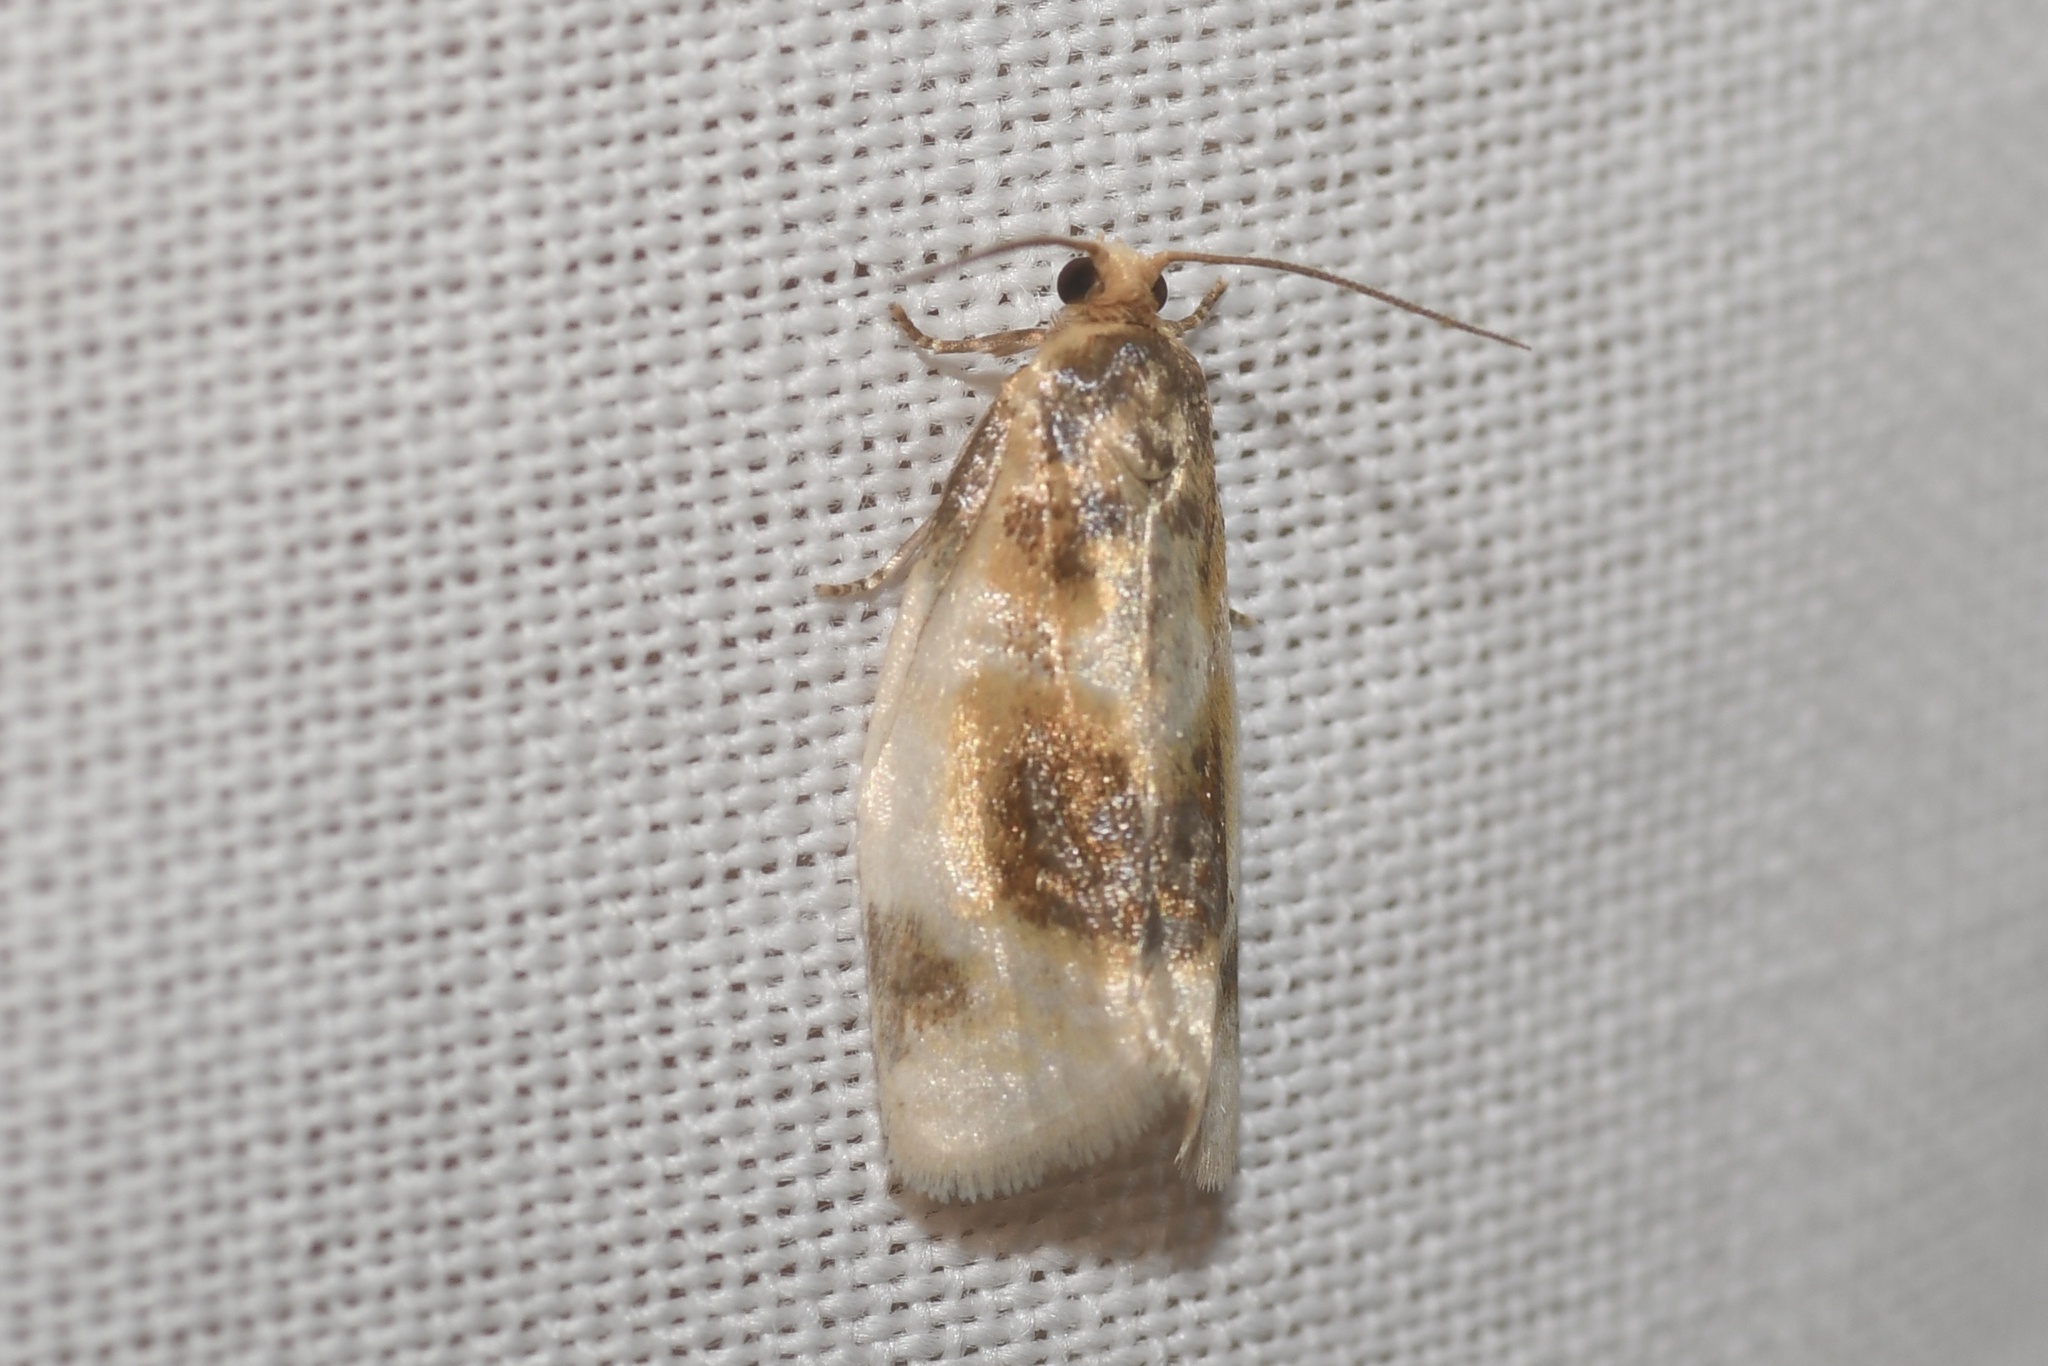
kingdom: Animalia
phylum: Arthropoda
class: Insecta
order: Lepidoptera
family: Tortricidae
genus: Clepsis
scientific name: Clepsis melaleucanus
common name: American apple tortrix
